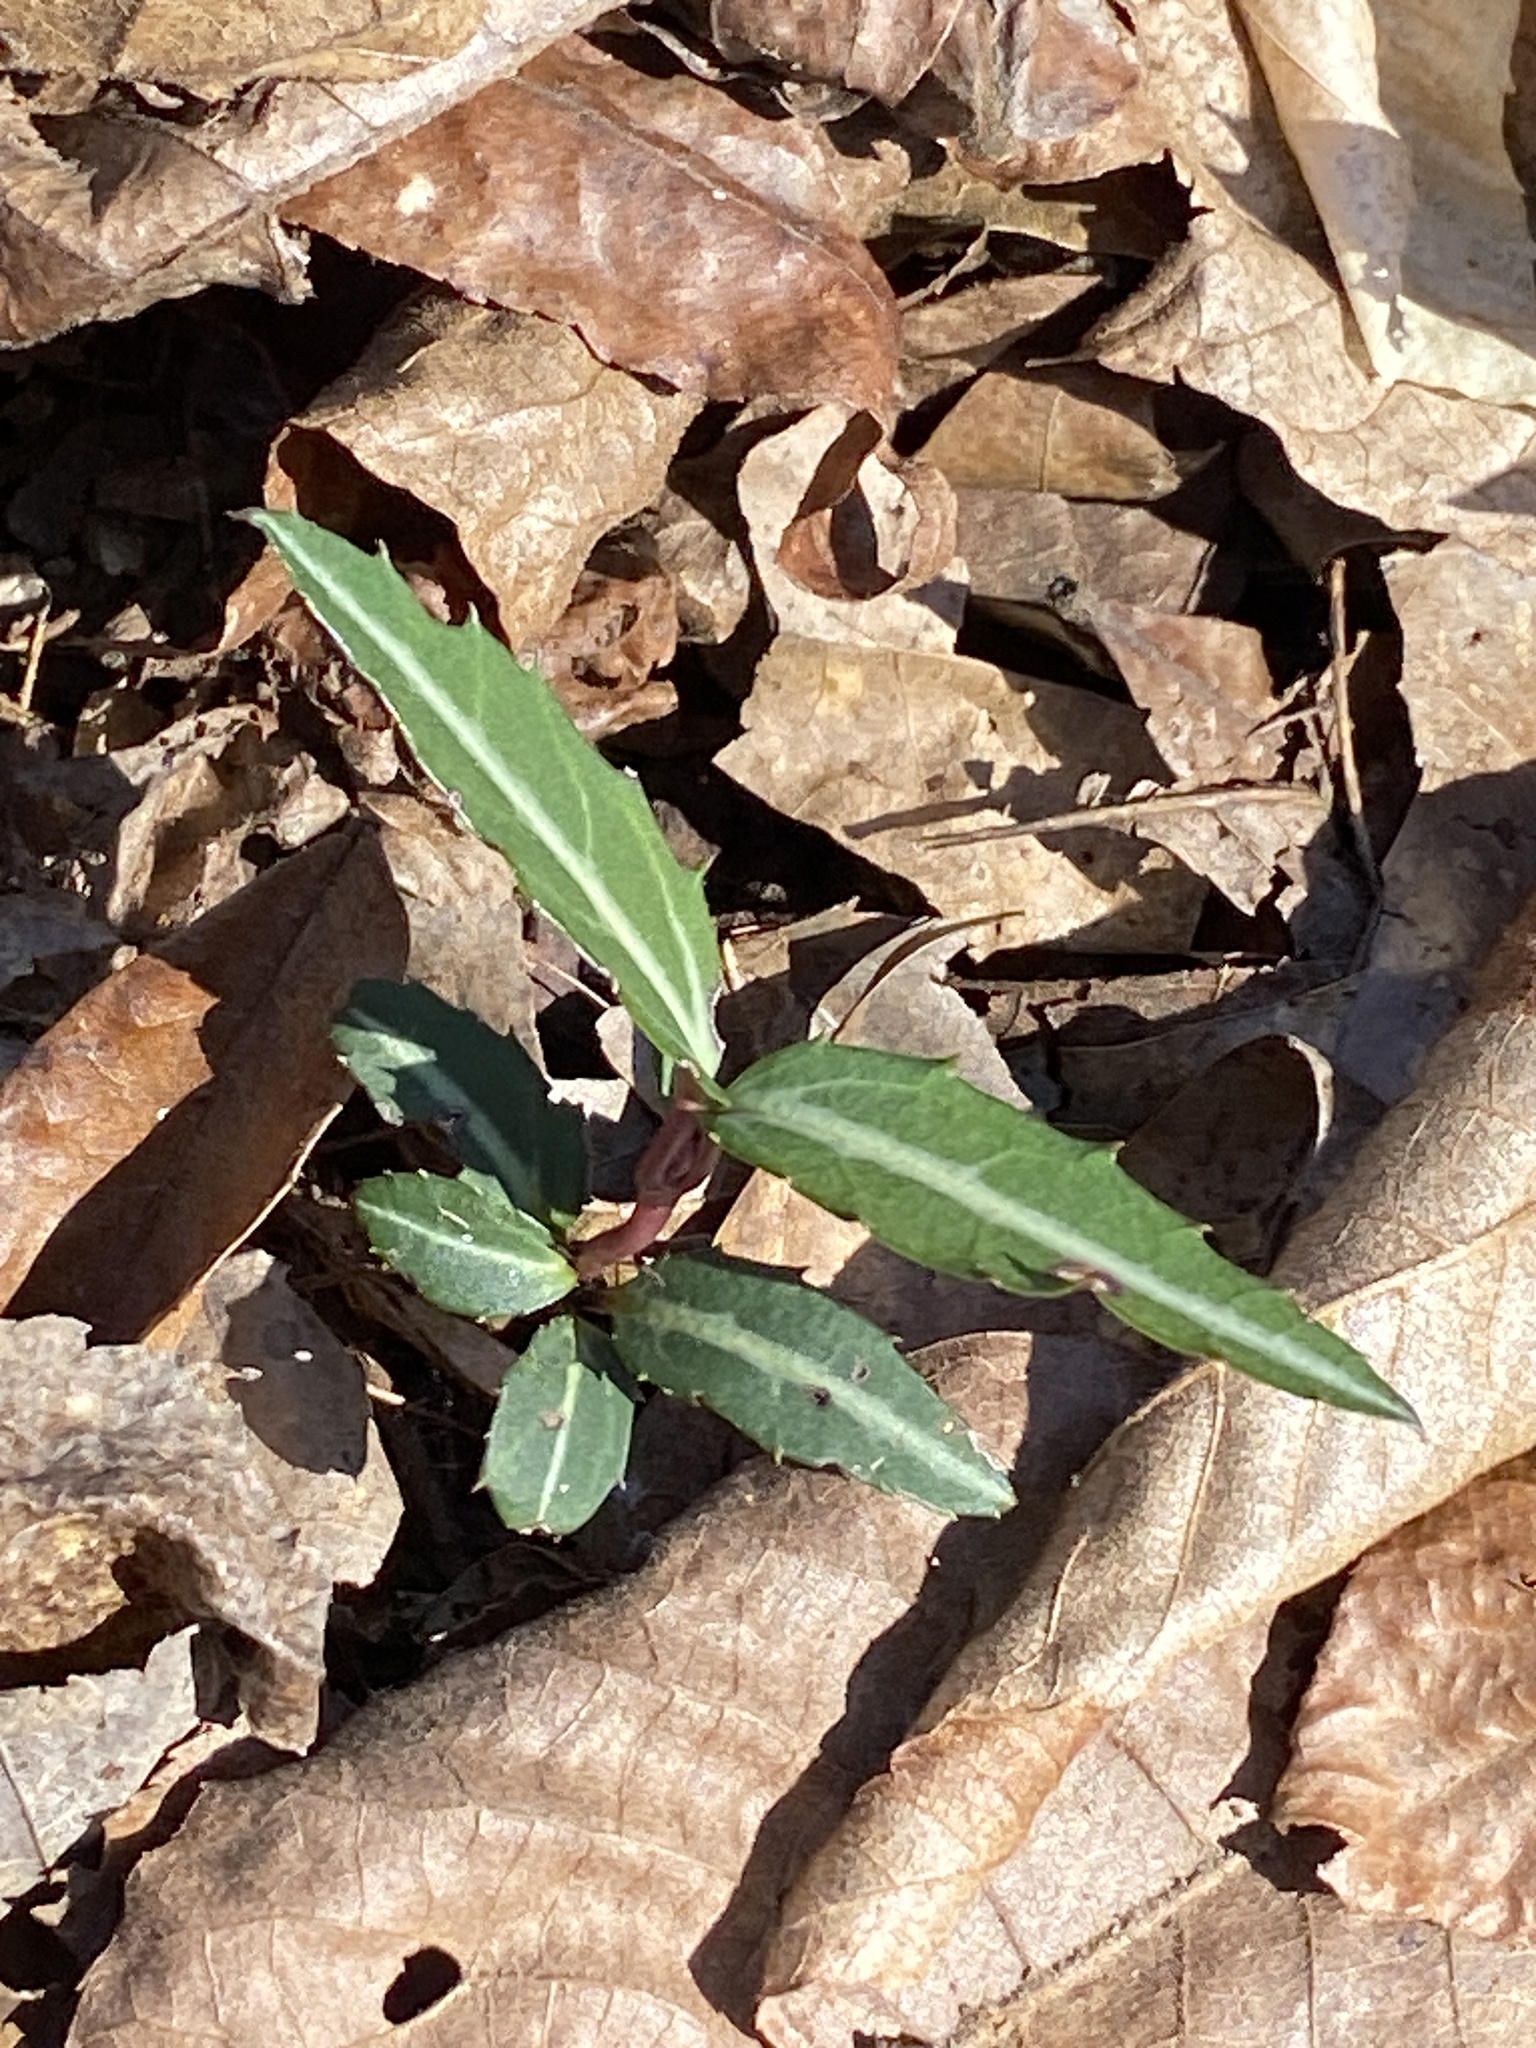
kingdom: Plantae
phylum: Tracheophyta
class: Magnoliopsida
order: Ericales
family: Ericaceae
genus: Chimaphila
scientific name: Chimaphila maculata
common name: Spotted pipsissewa
